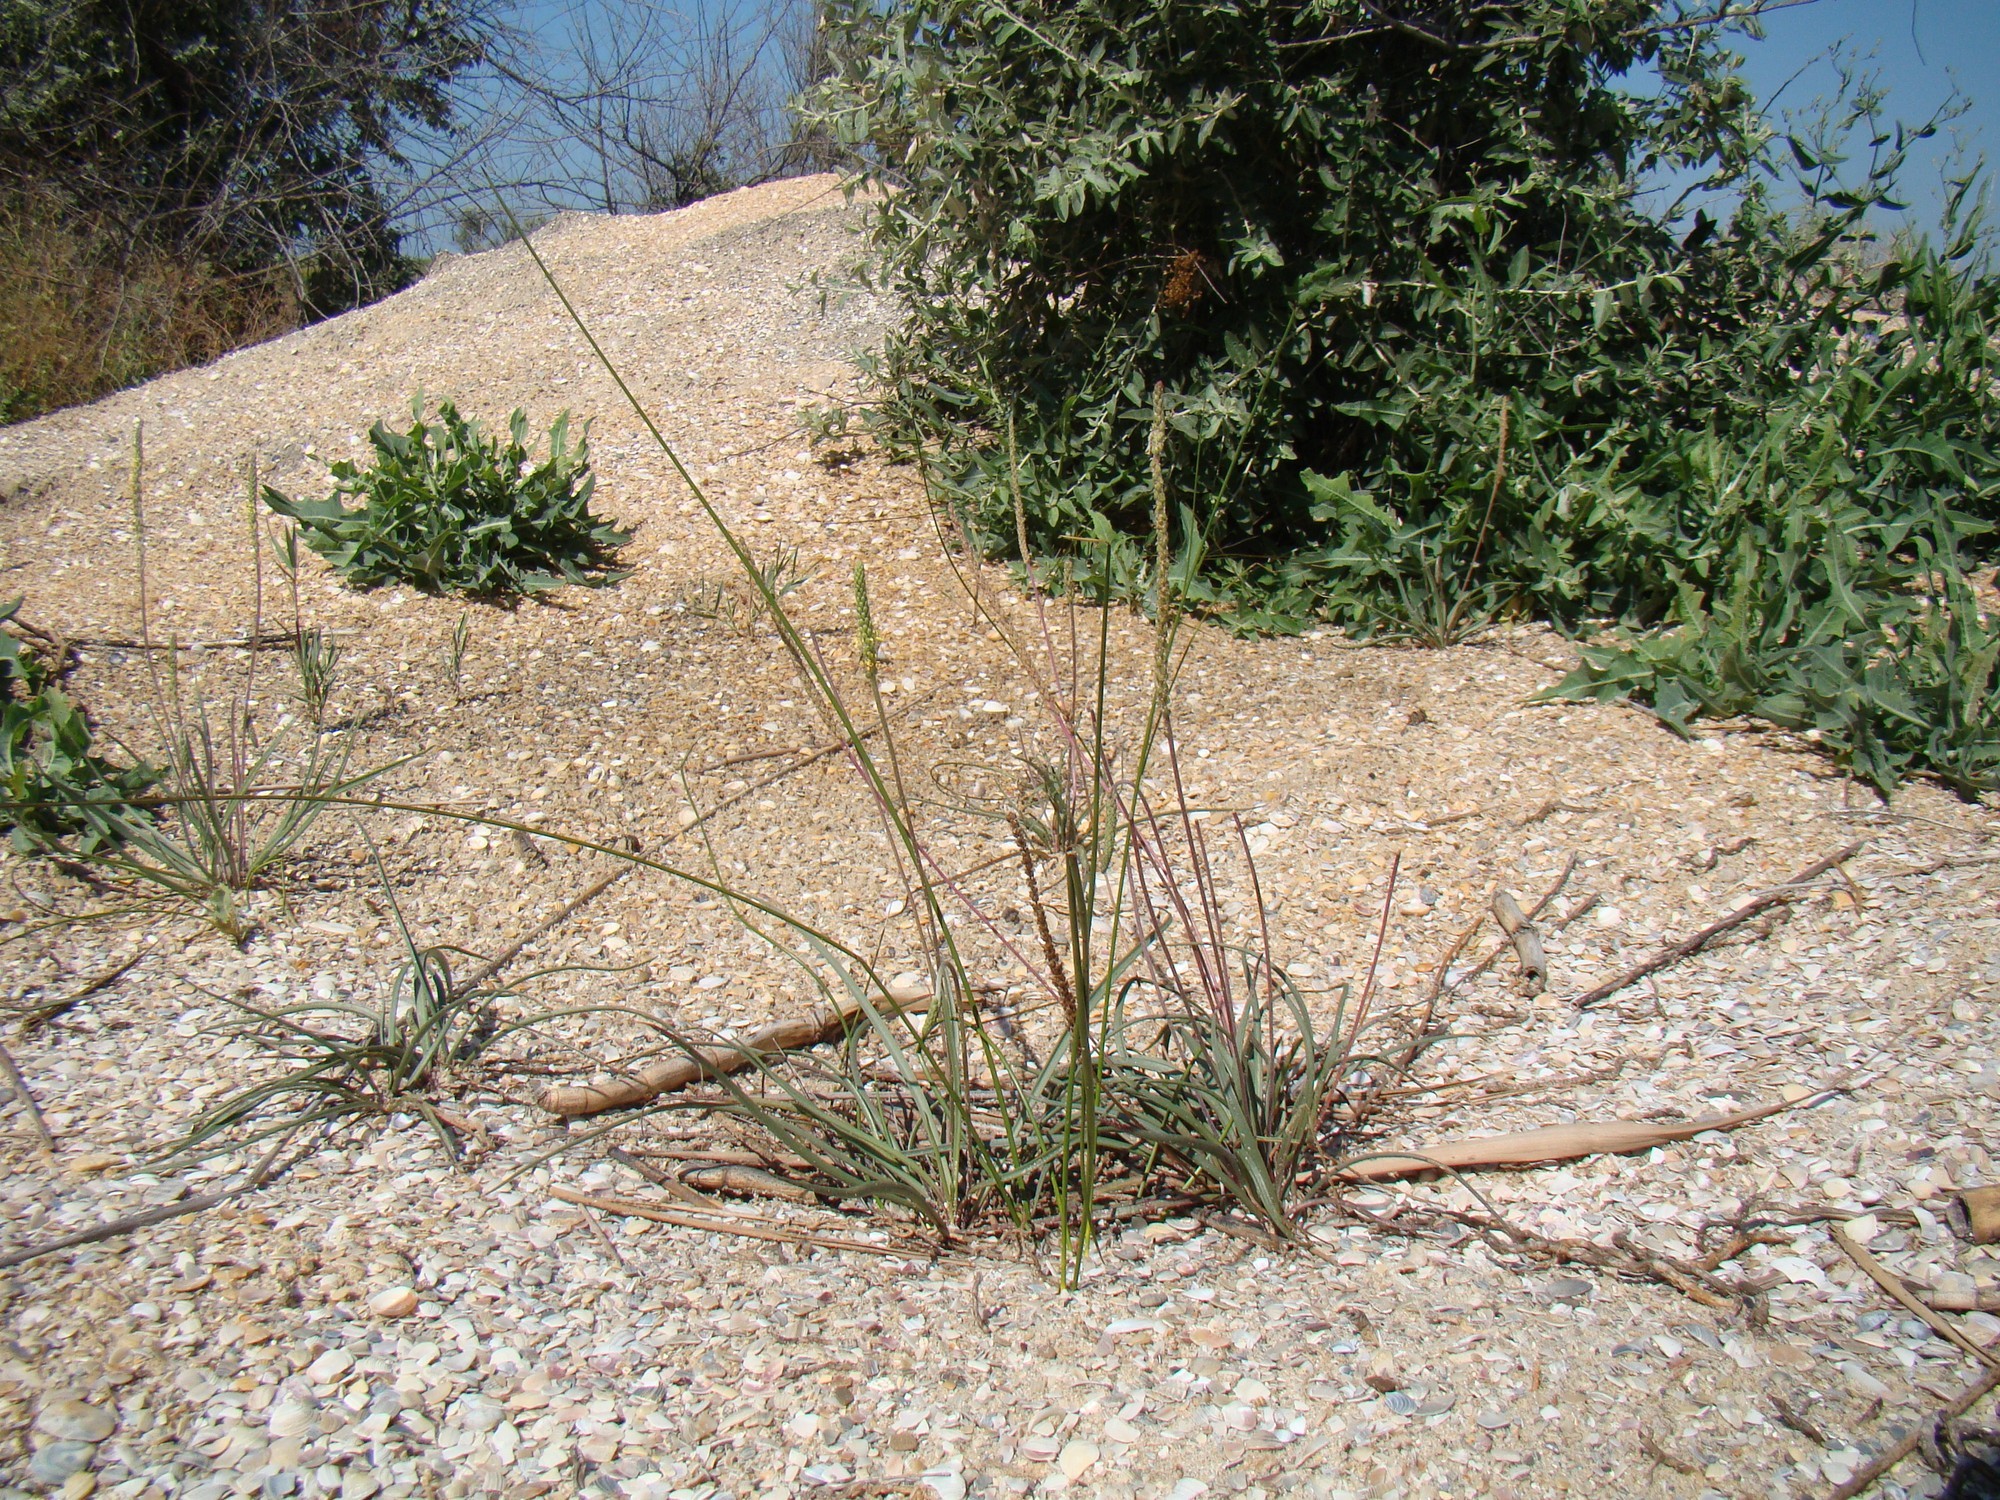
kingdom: Plantae
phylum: Tracheophyta
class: Magnoliopsida
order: Lamiales
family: Plantaginaceae
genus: Plantago
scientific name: Plantago maritima
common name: Sea plantain
